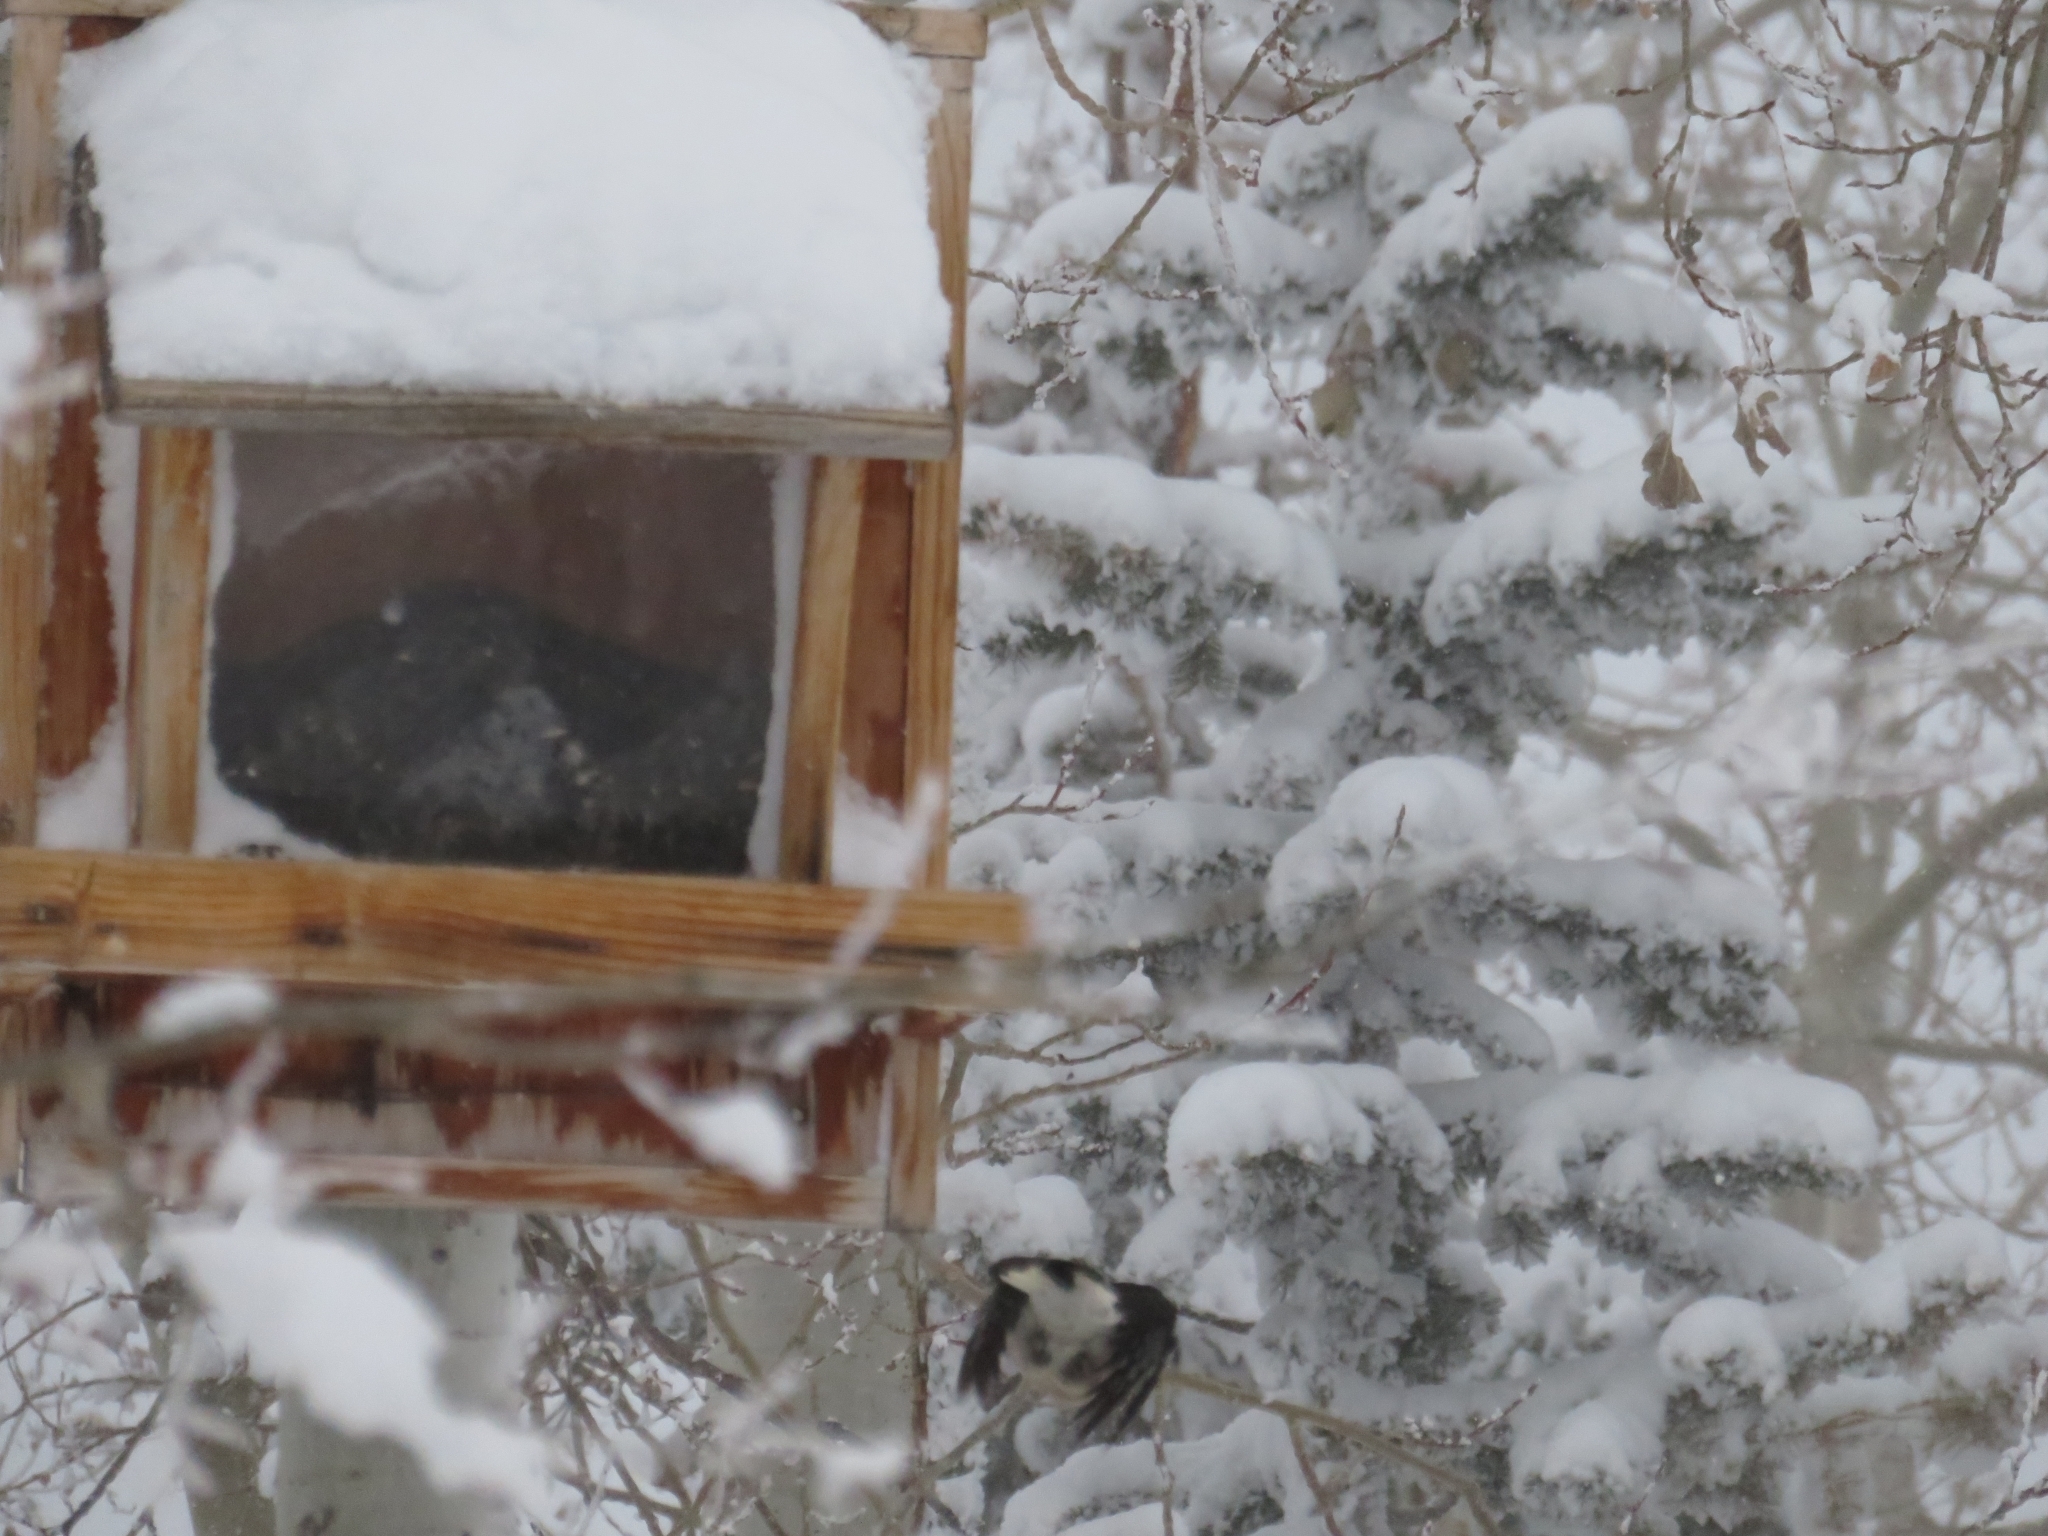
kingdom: Animalia
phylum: Chordata
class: Aves
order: Piciformes
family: Picidae
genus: Leuconotopicus
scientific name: Leuconotopicus villosus
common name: Hairy woodpecker
